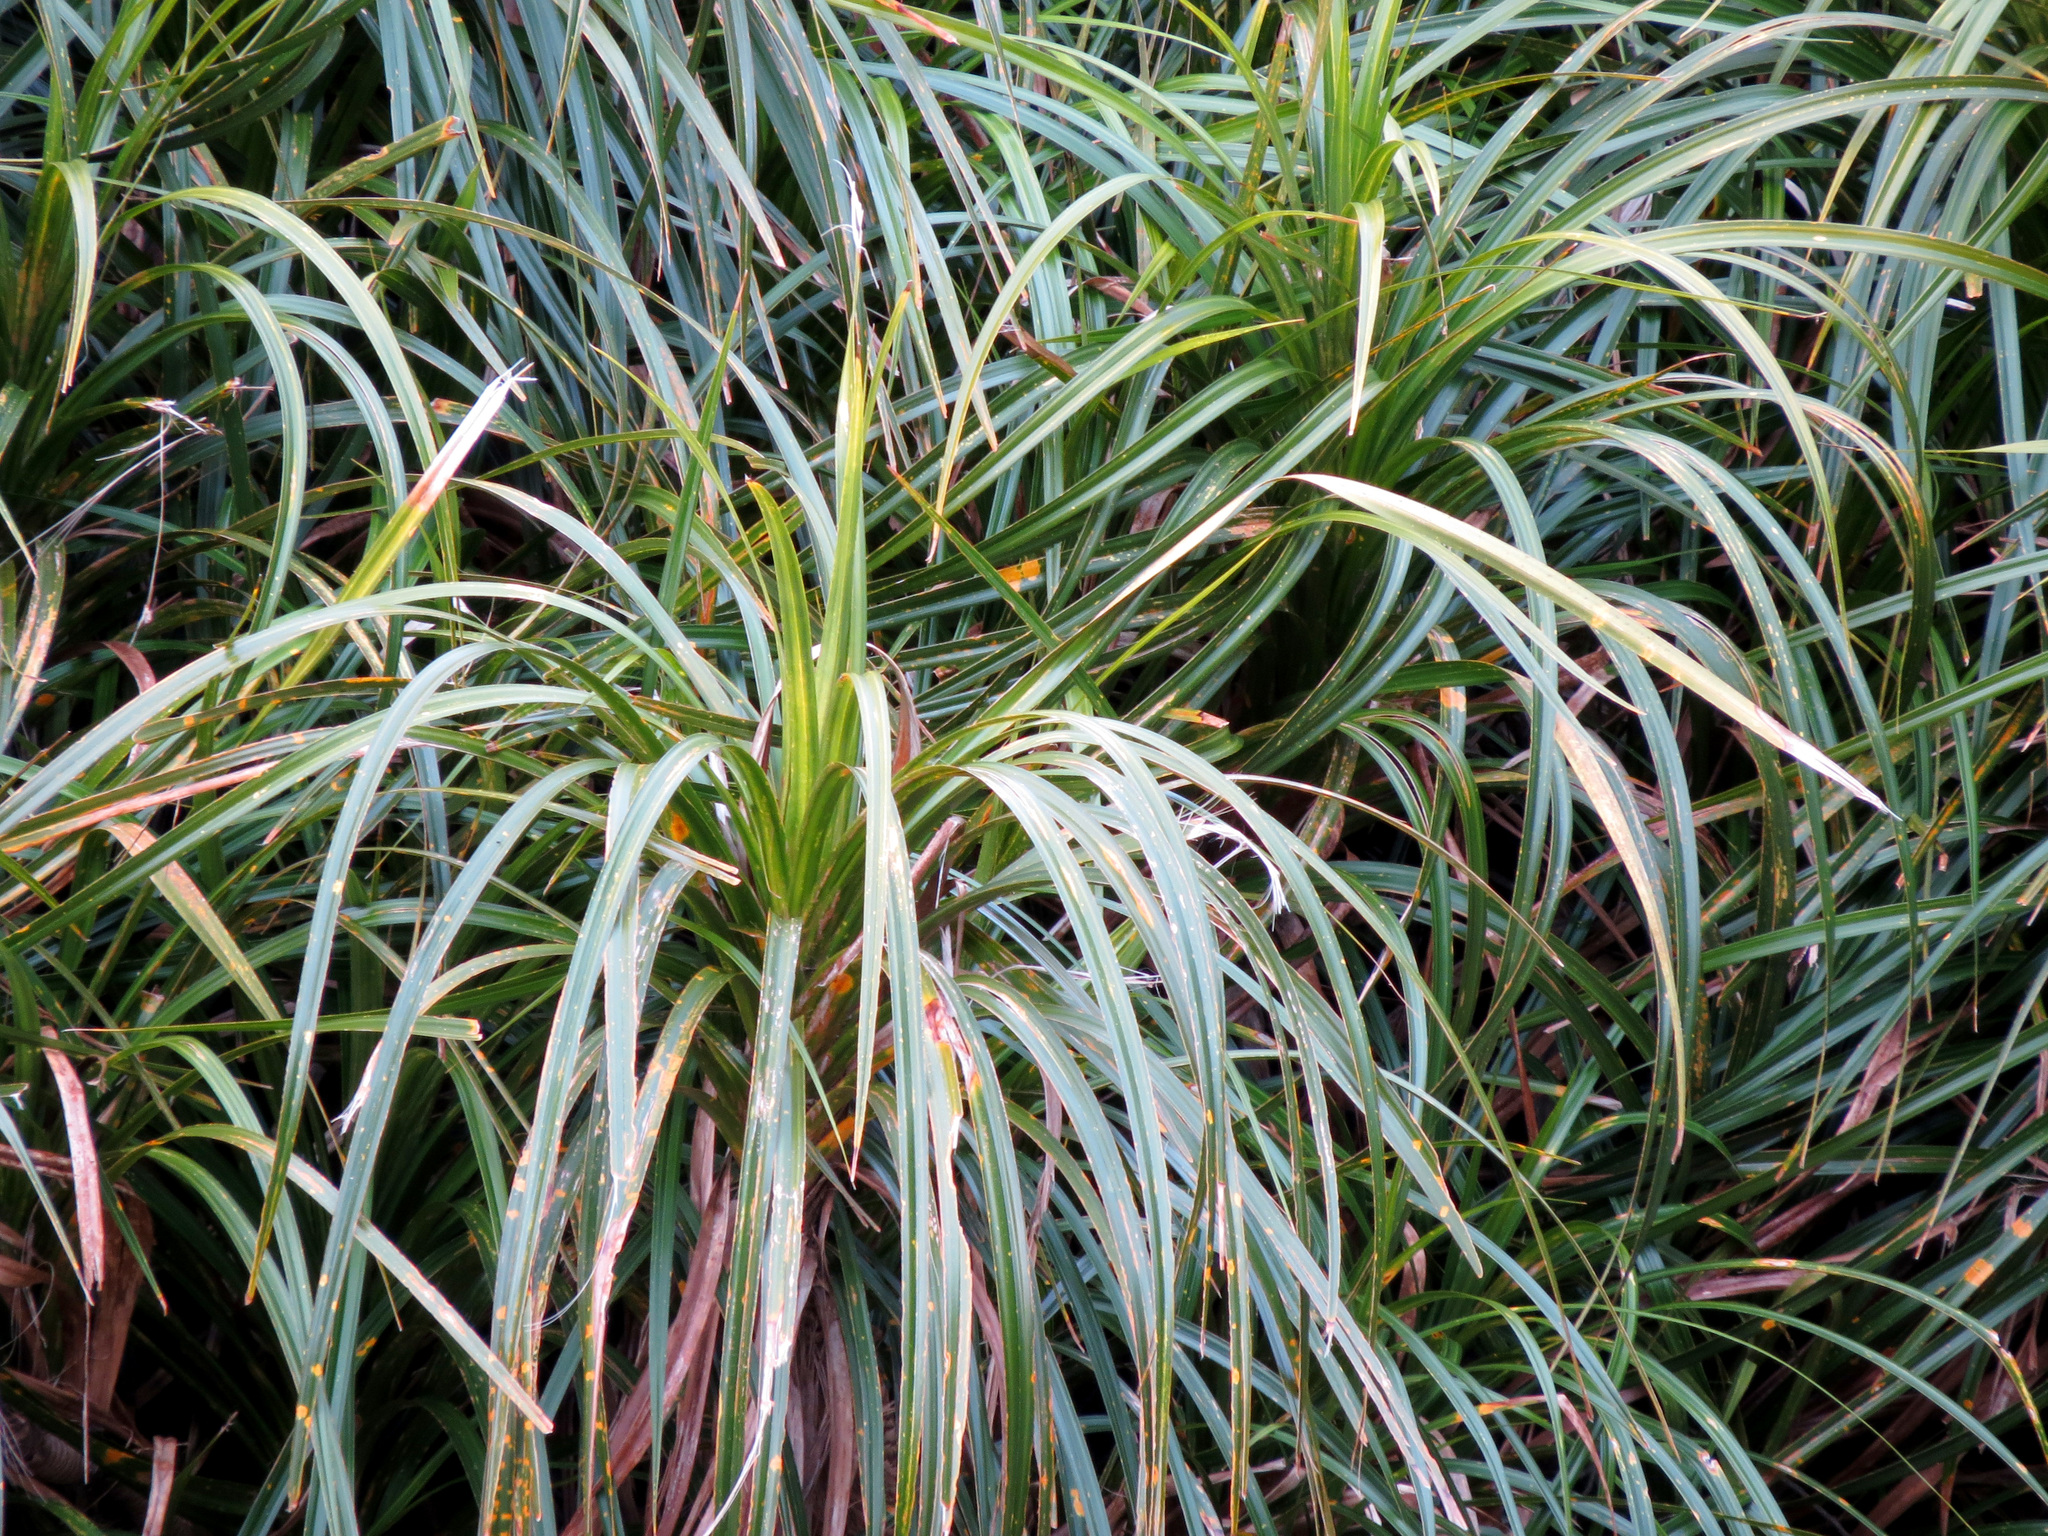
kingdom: Plantae
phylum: Tracheophyta
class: Liliopsida
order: Pandanales
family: Pandanaceae
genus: Freycinetia
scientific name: Freycinetia banksii
